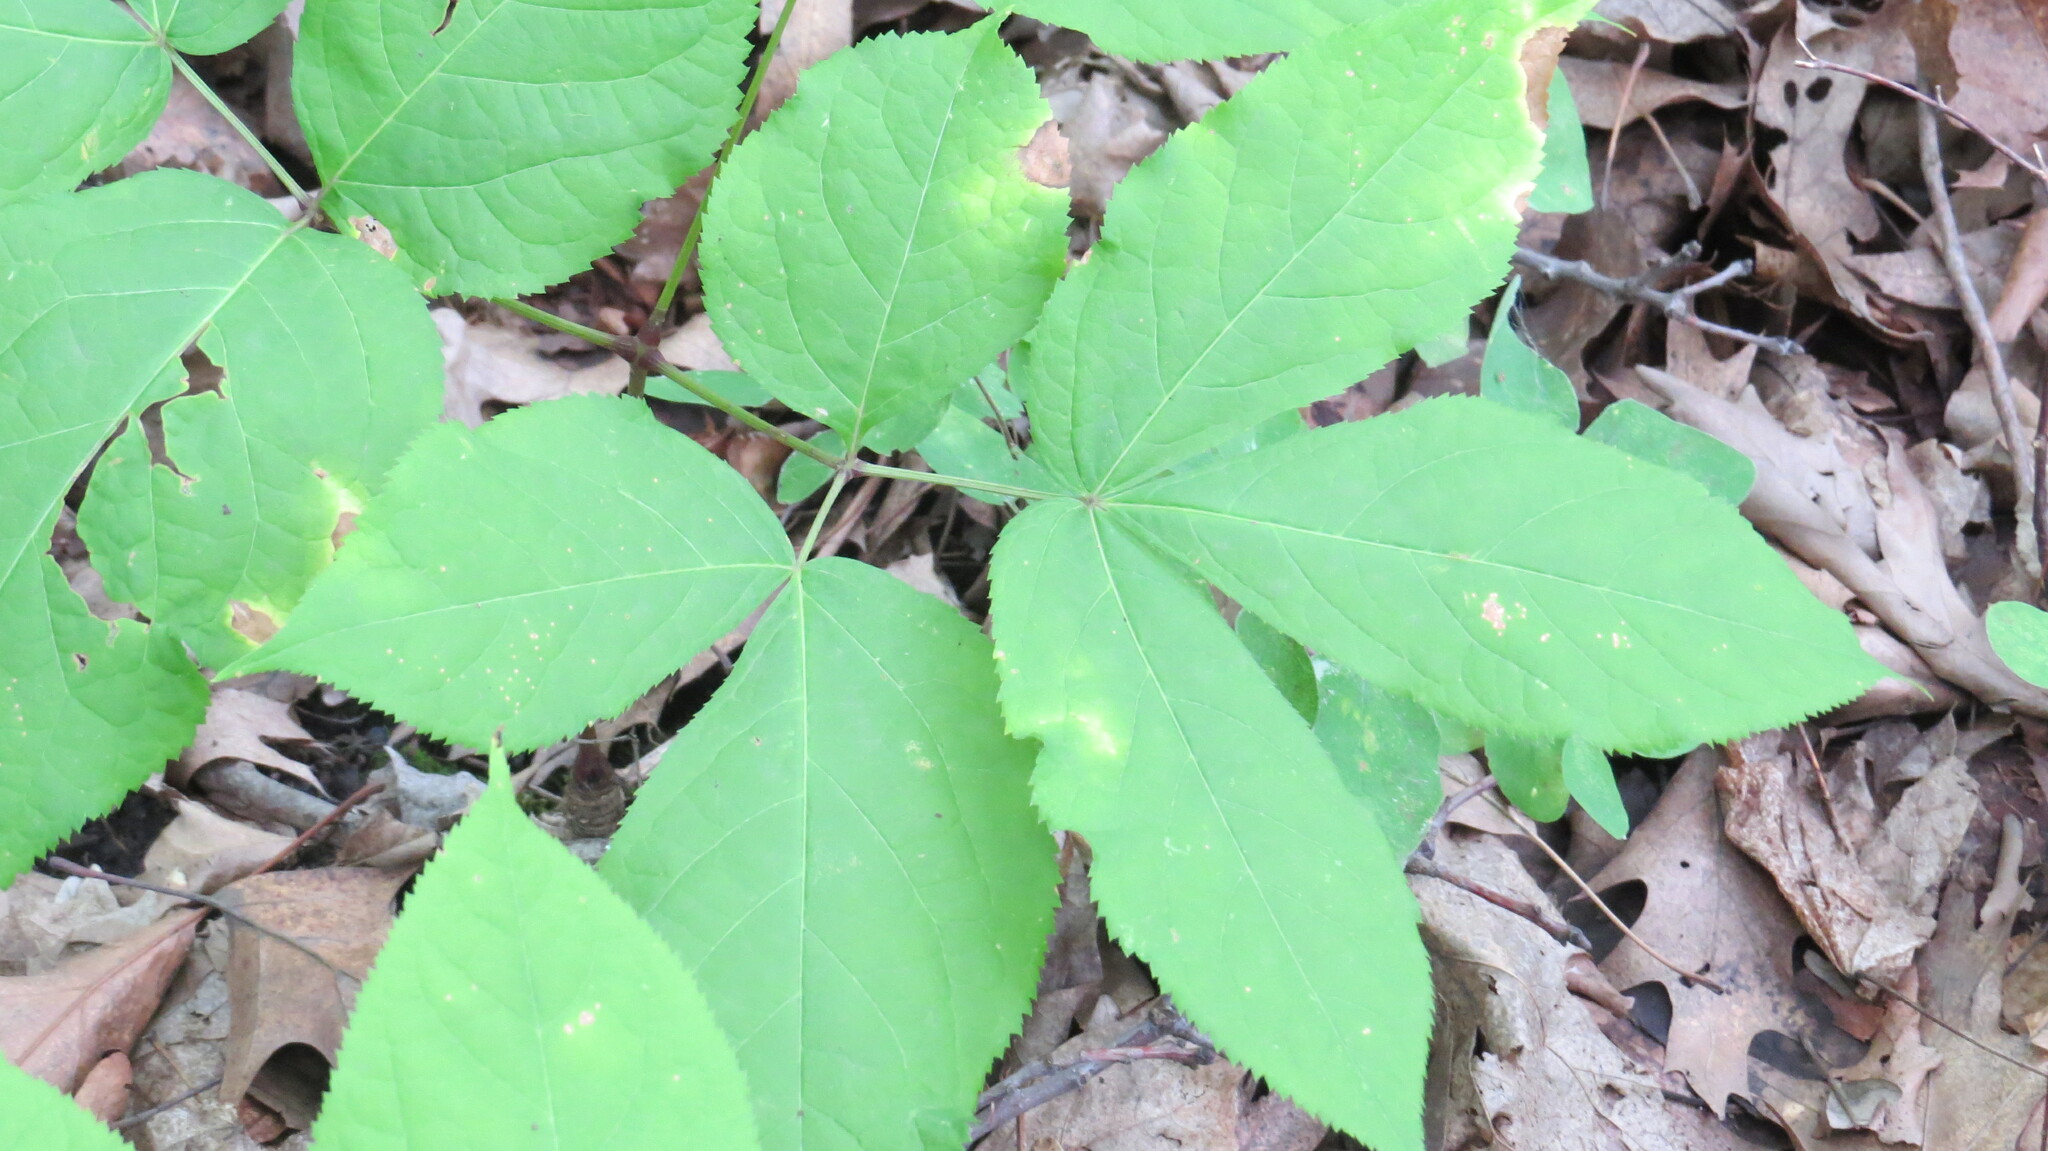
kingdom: Plantae
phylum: Tracheophyta
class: Magnoliopsida
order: Apiales
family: Araliaceae
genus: Aralia
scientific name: Aralia nudicaulis
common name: Wild sarsaparilla
